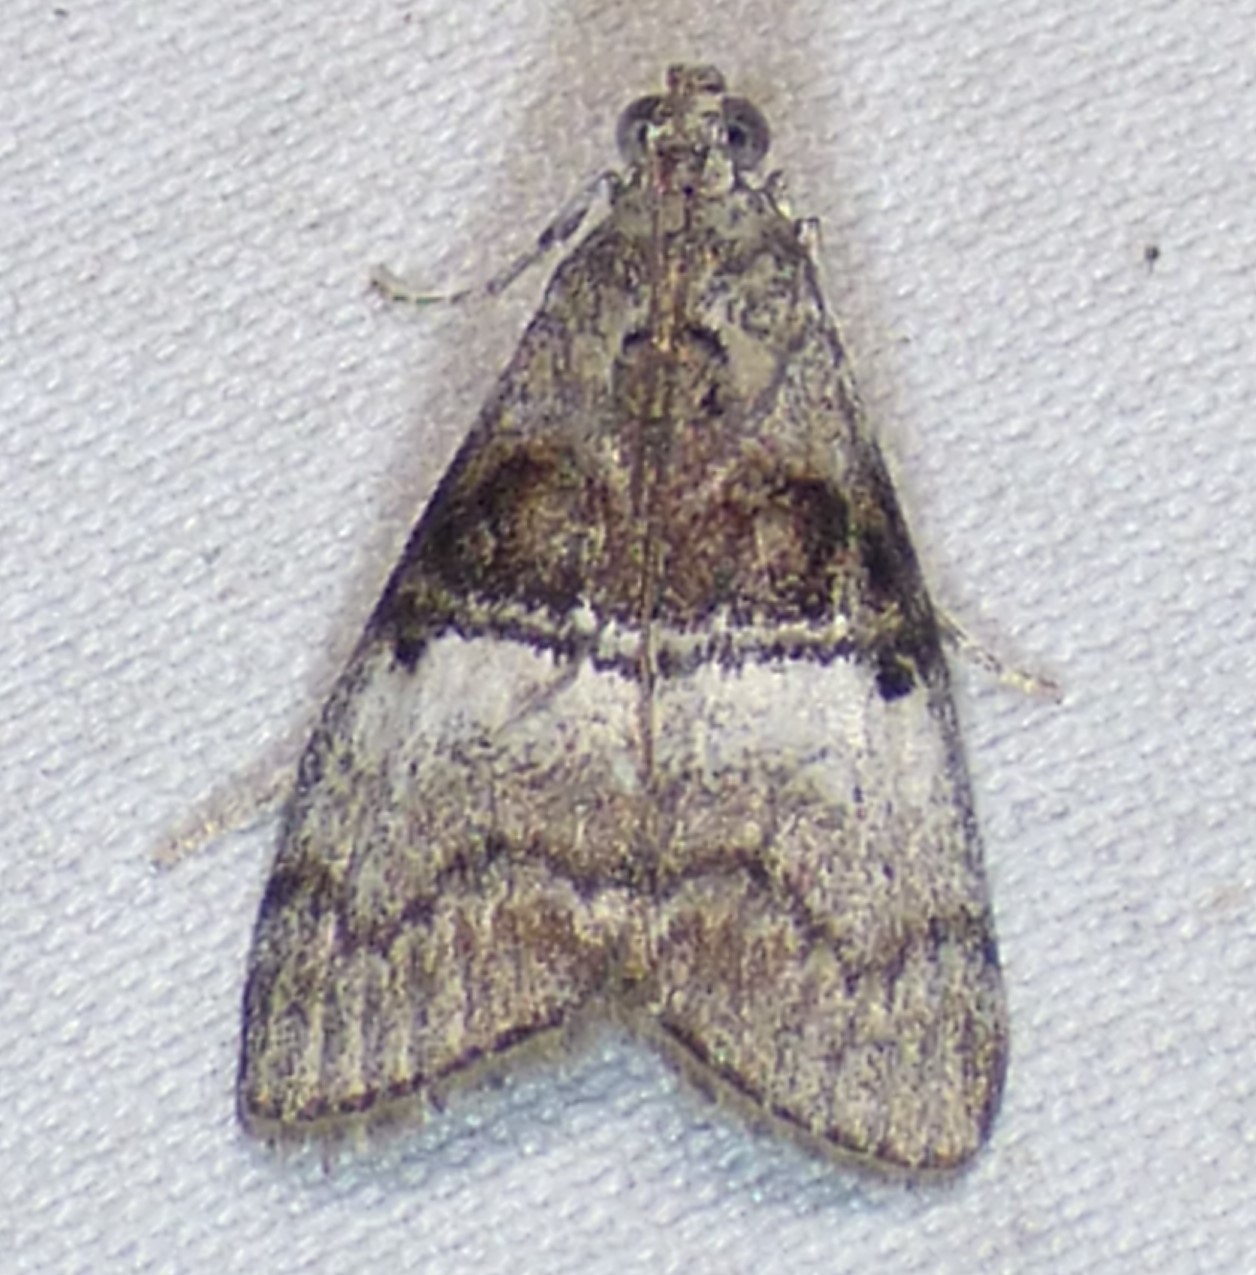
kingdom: Animalia
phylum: Arthropoda
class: Insecta
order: Lepidoptera
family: Pyralidae
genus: Pococera
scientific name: Pococera asperatella
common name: Maple webworm moth
